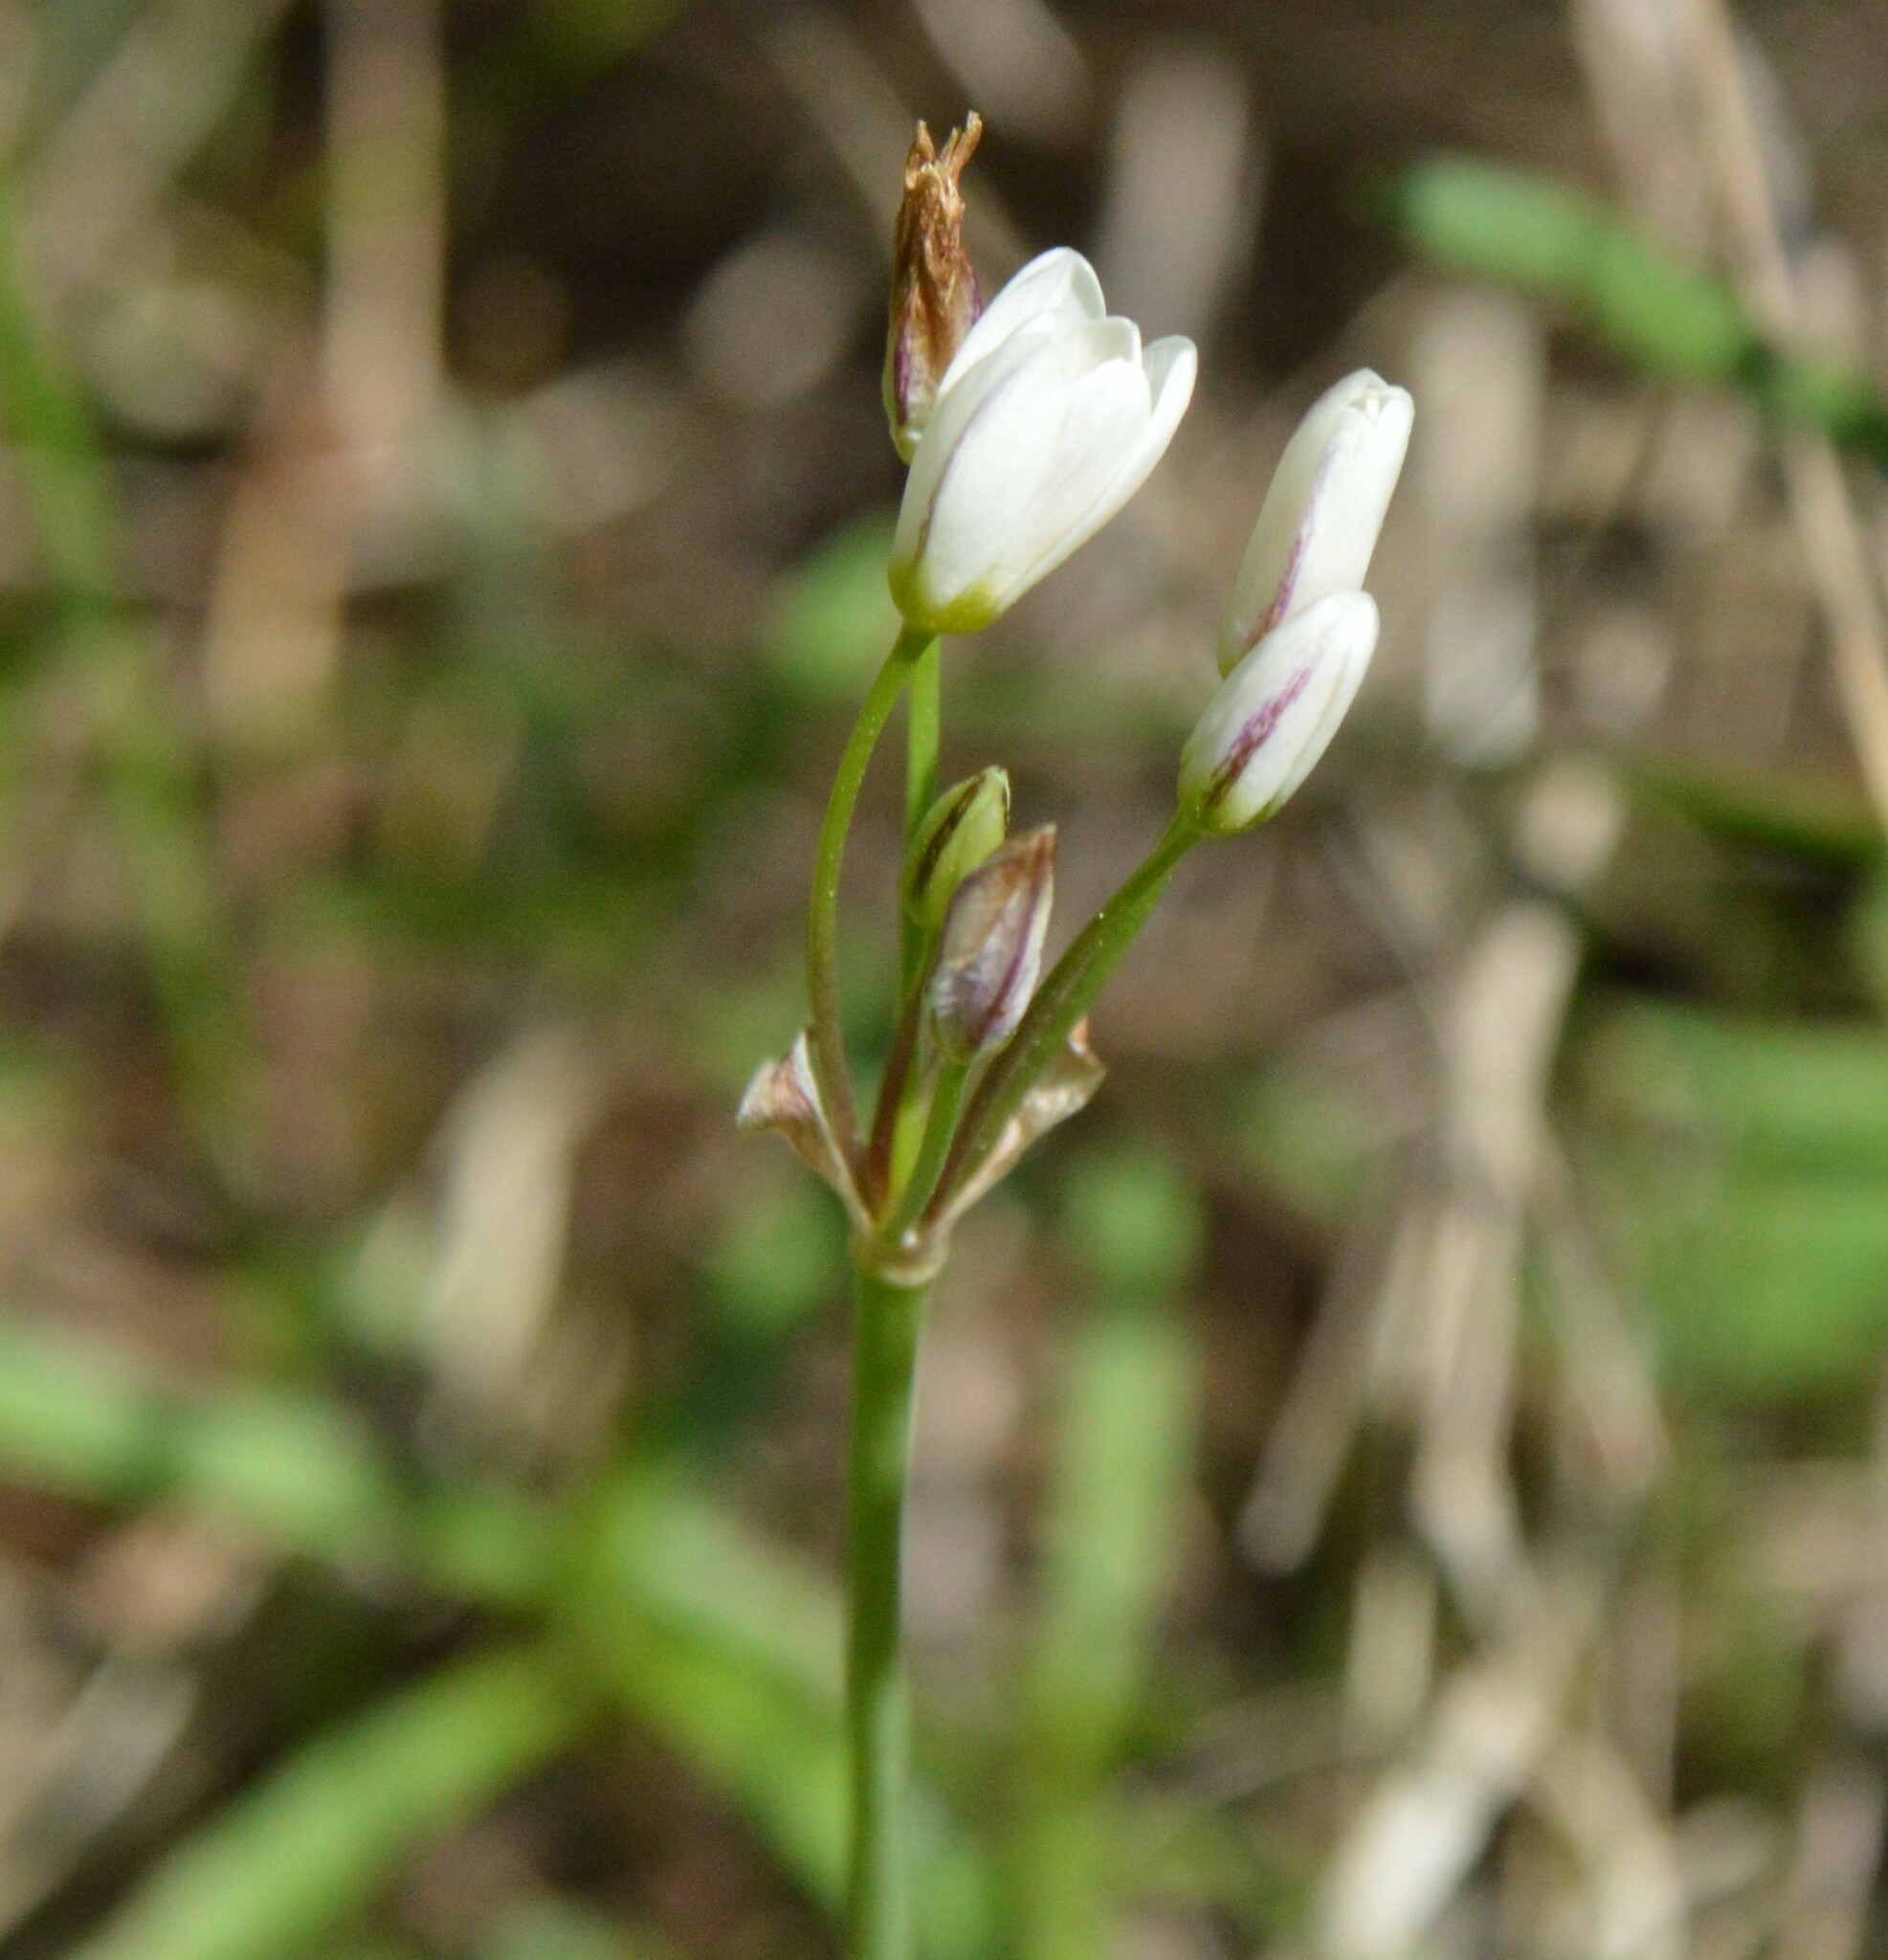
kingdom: Plantae
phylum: Tracheophyta
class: Liliopsida
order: Asparagales
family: Amaryllidaceae
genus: Nothoscordum
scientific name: Nothoscordum bivalve
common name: Crow-poison
